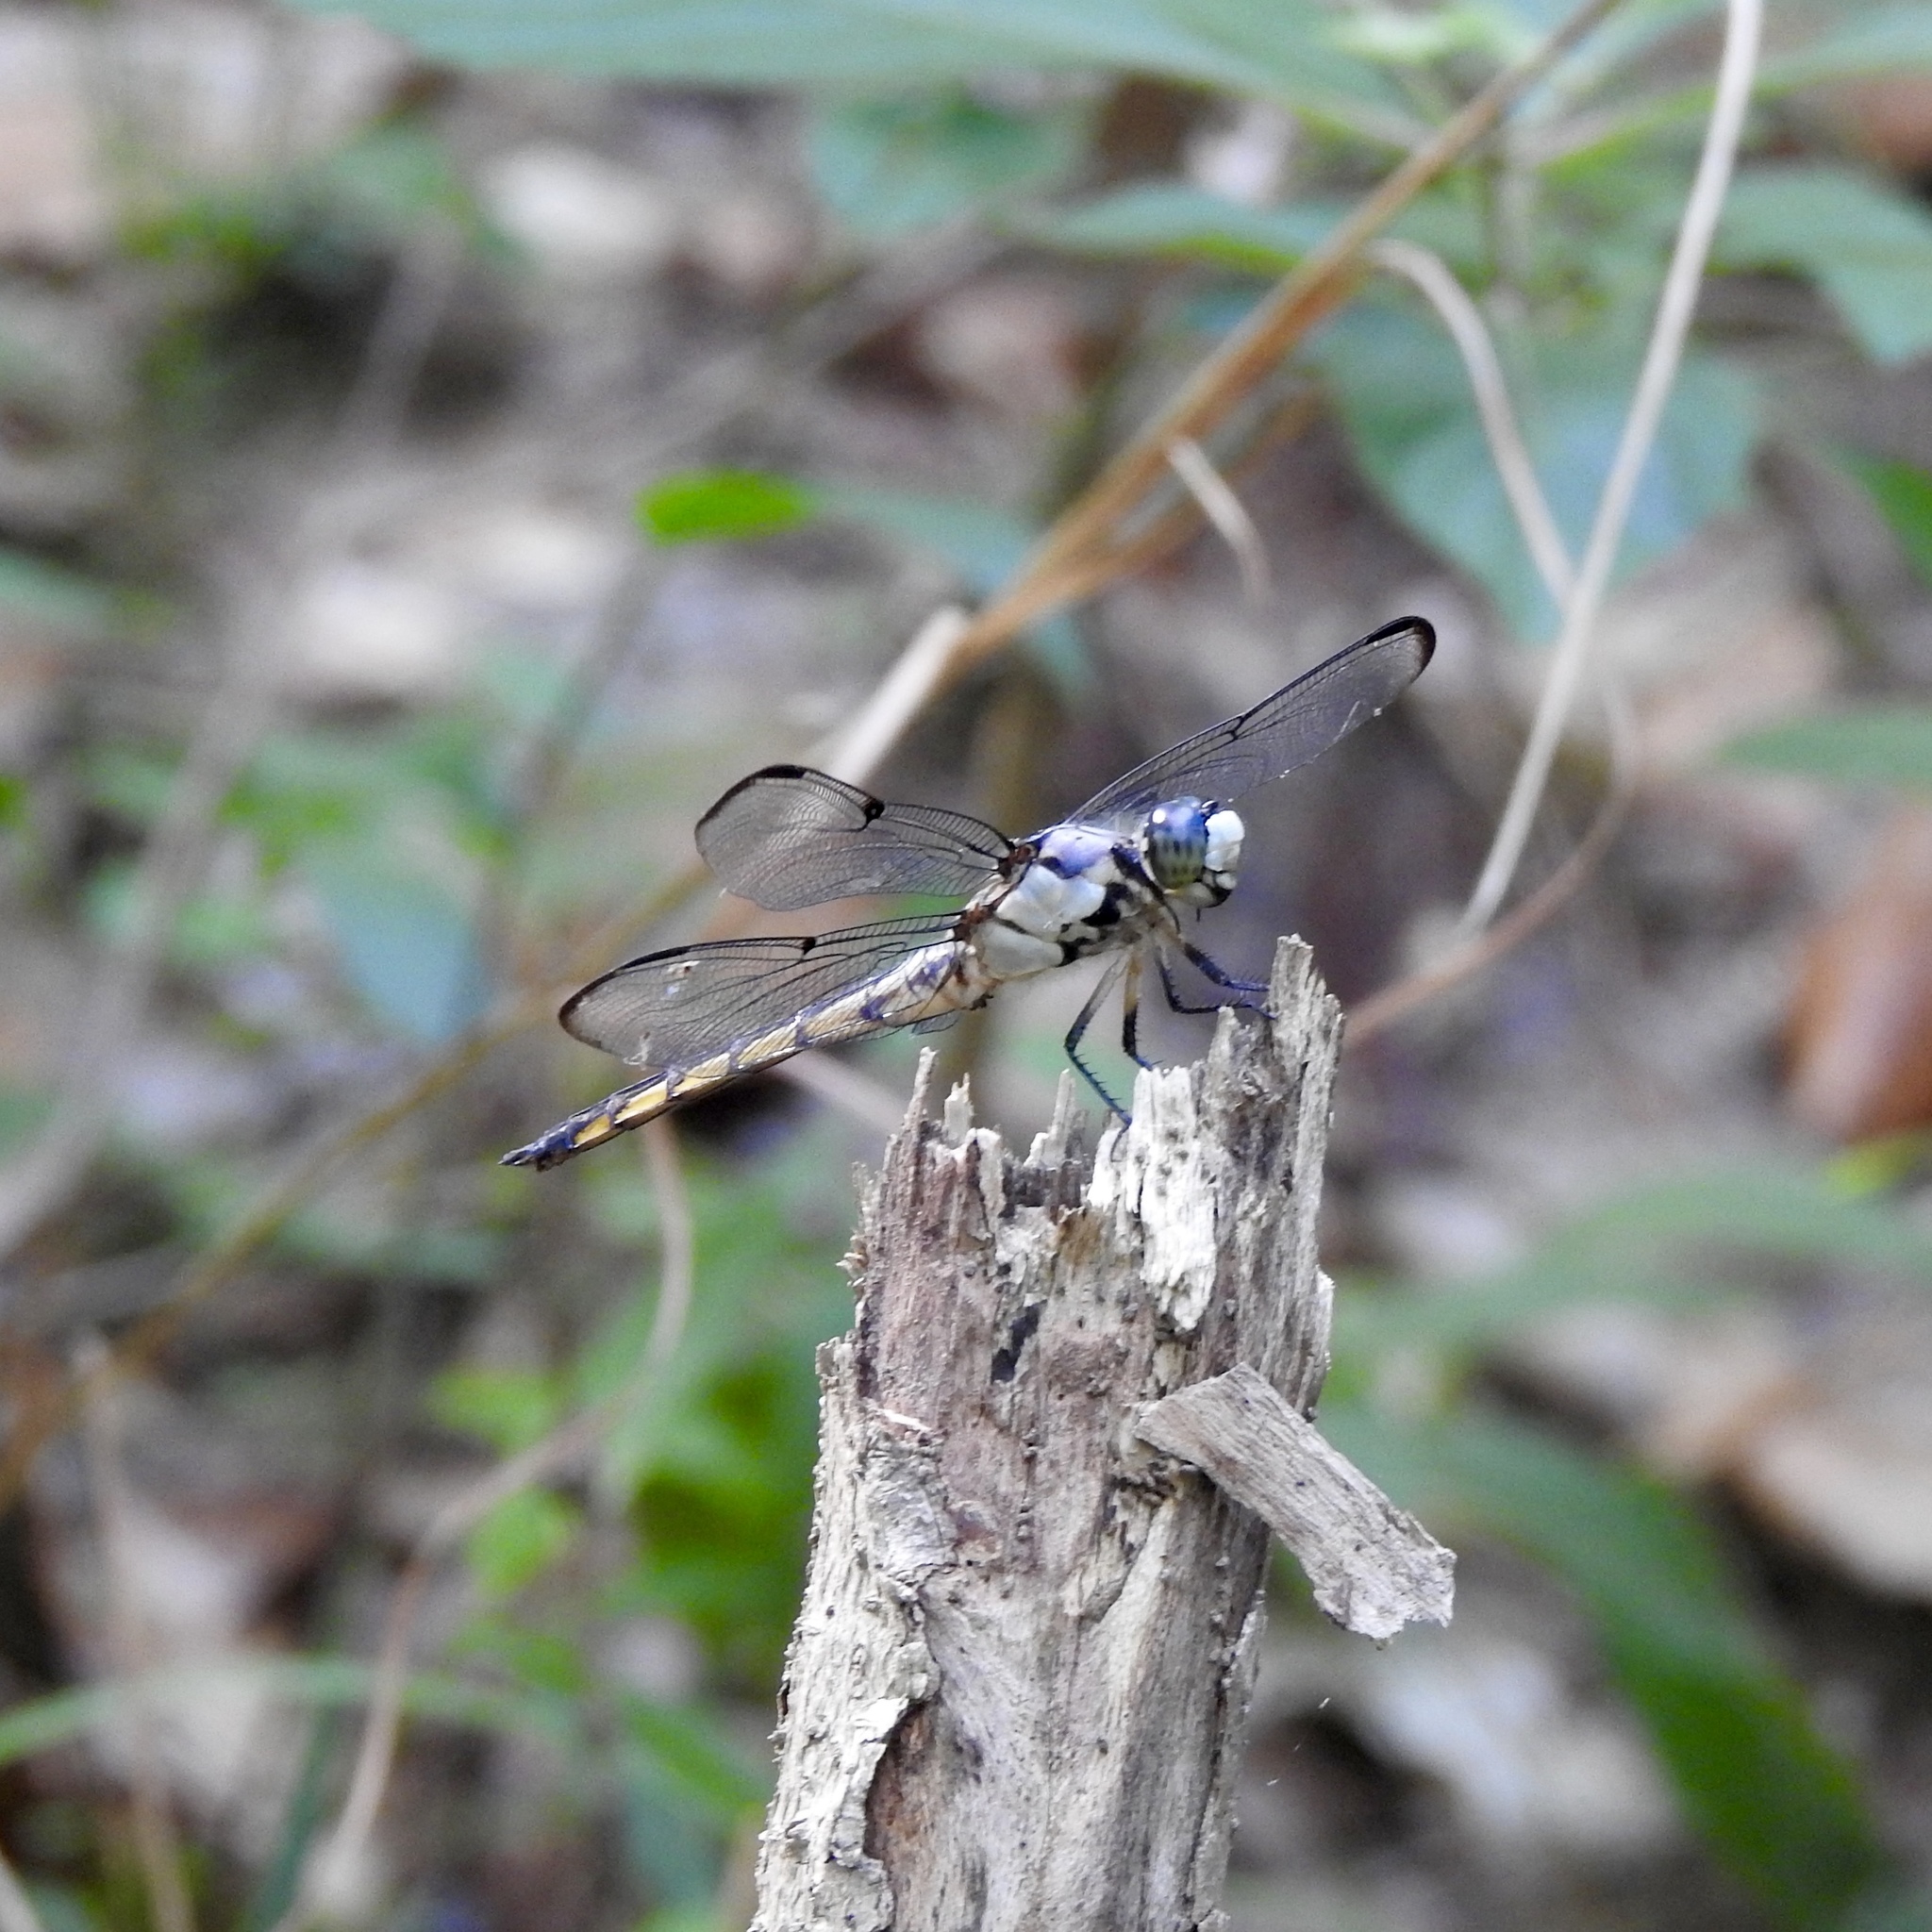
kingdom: Animalia
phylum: Arthropoda
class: Insecta
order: Odonata
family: Libellulidae
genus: Libellula
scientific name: Libellula vibrans
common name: Great blue skimmer
